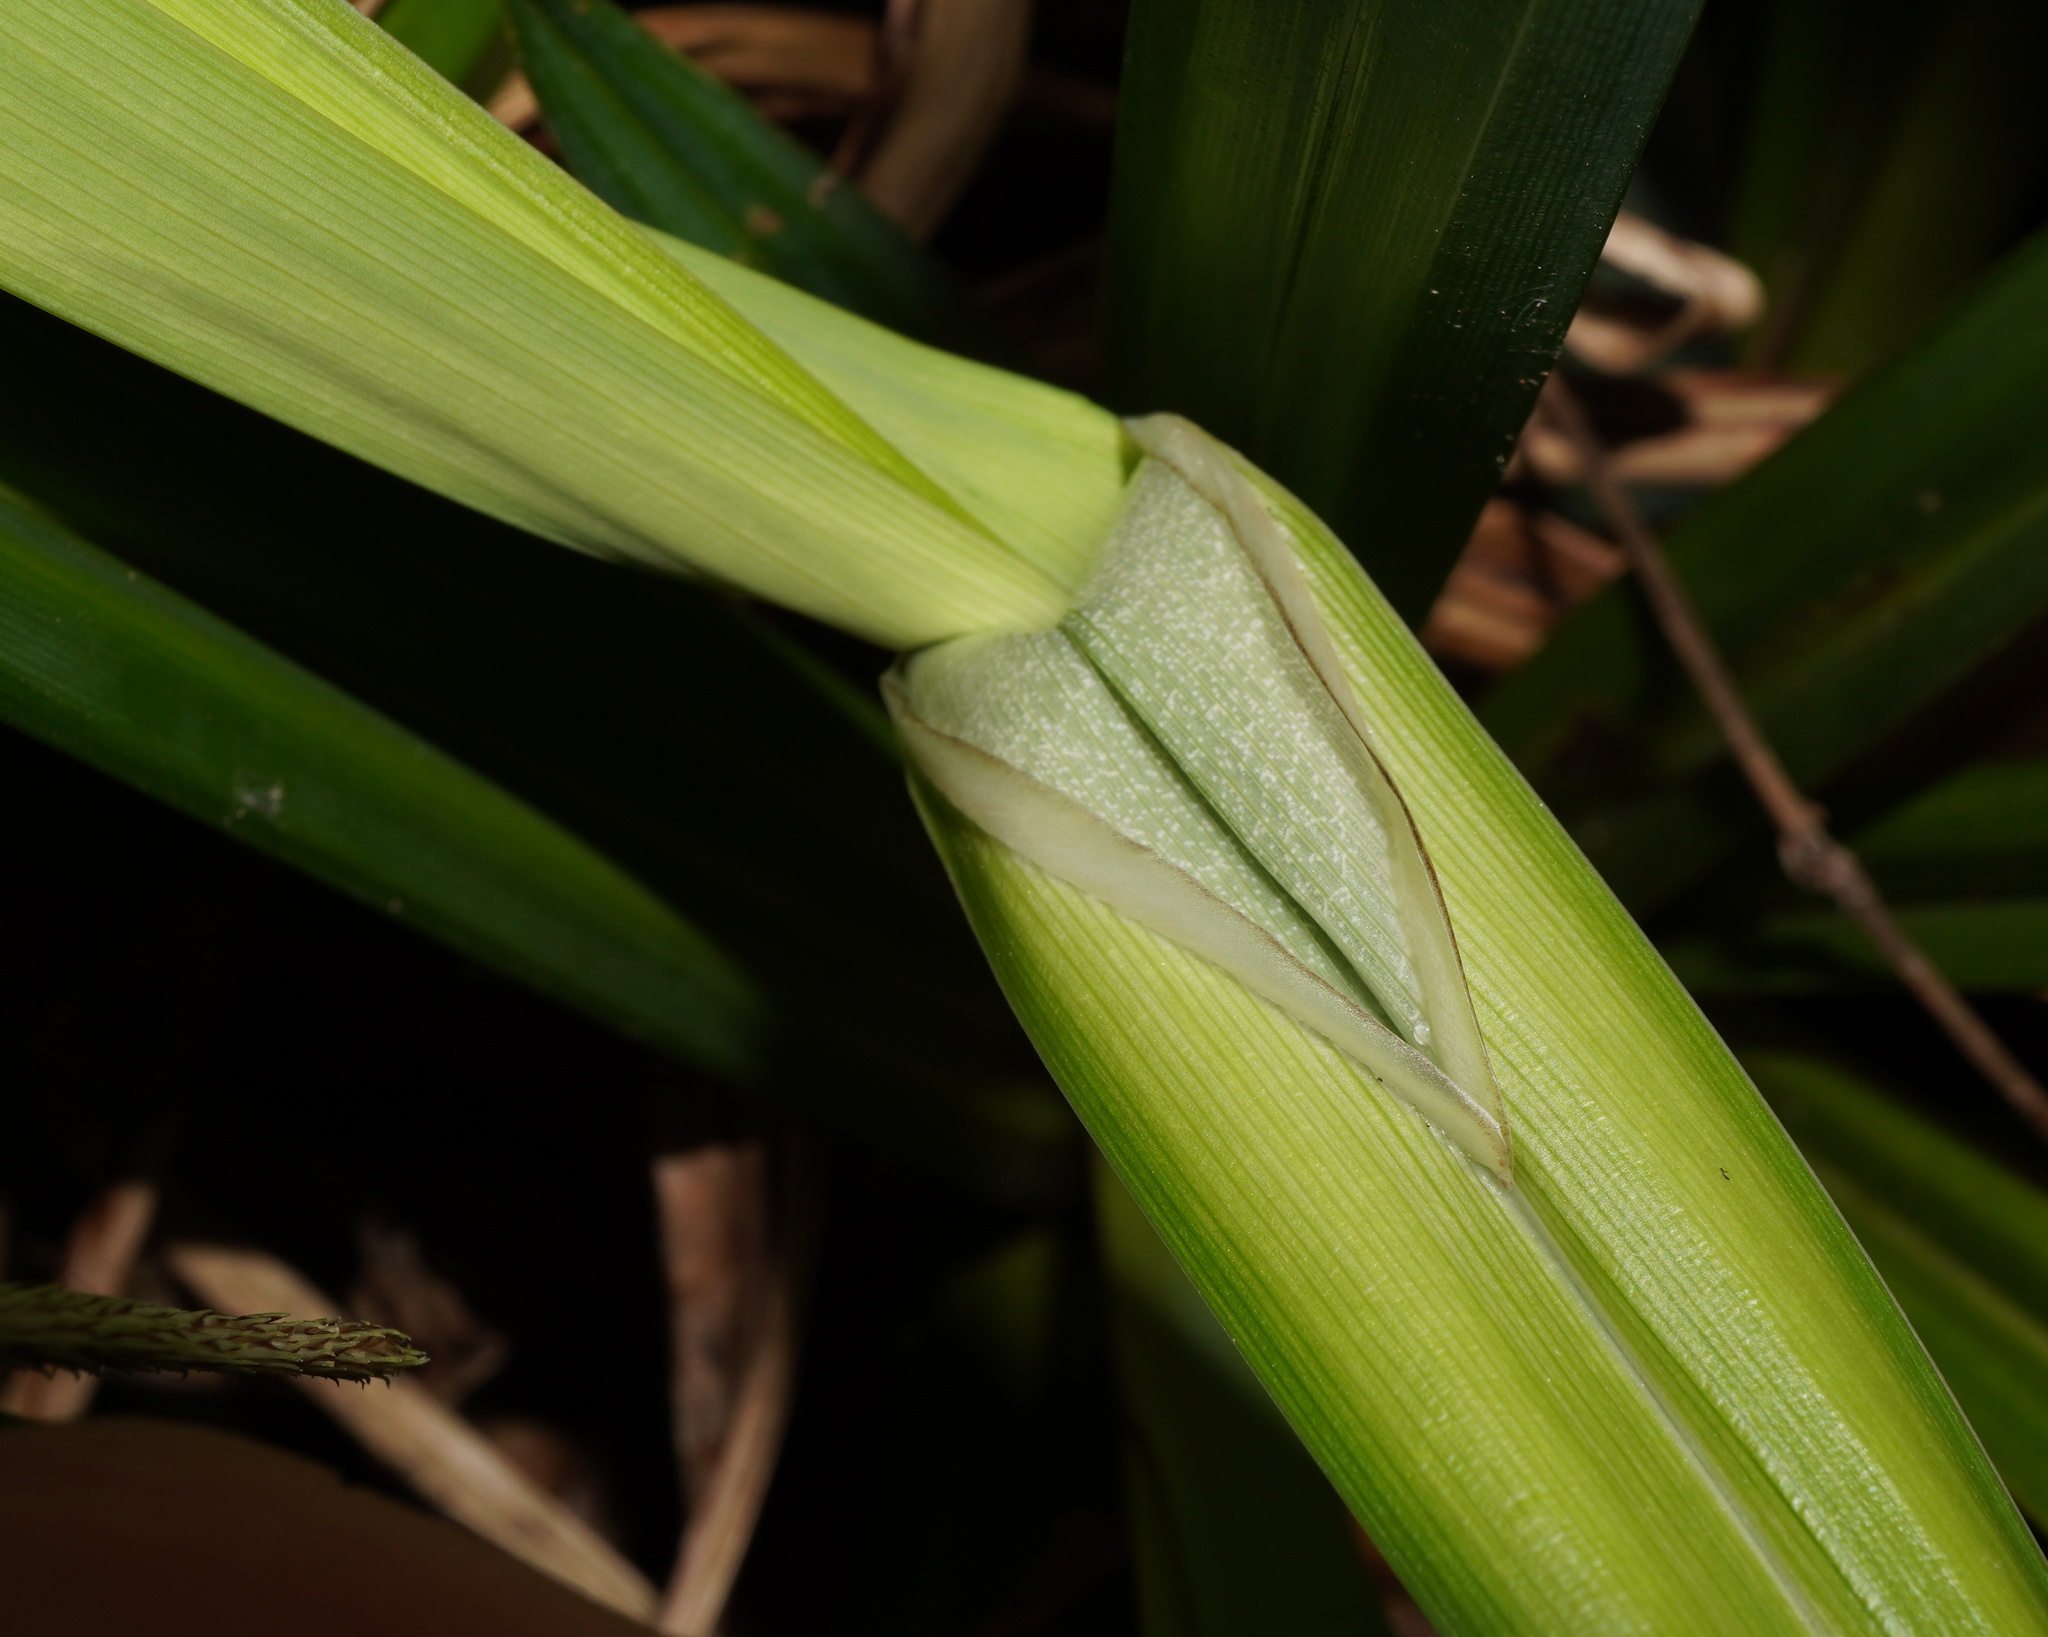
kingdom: Plantae
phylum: Tracheophyta
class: Liliopsida
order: Poales
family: Cyperaceae
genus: Carex
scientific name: Carex pendula
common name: Pendulous sedge
